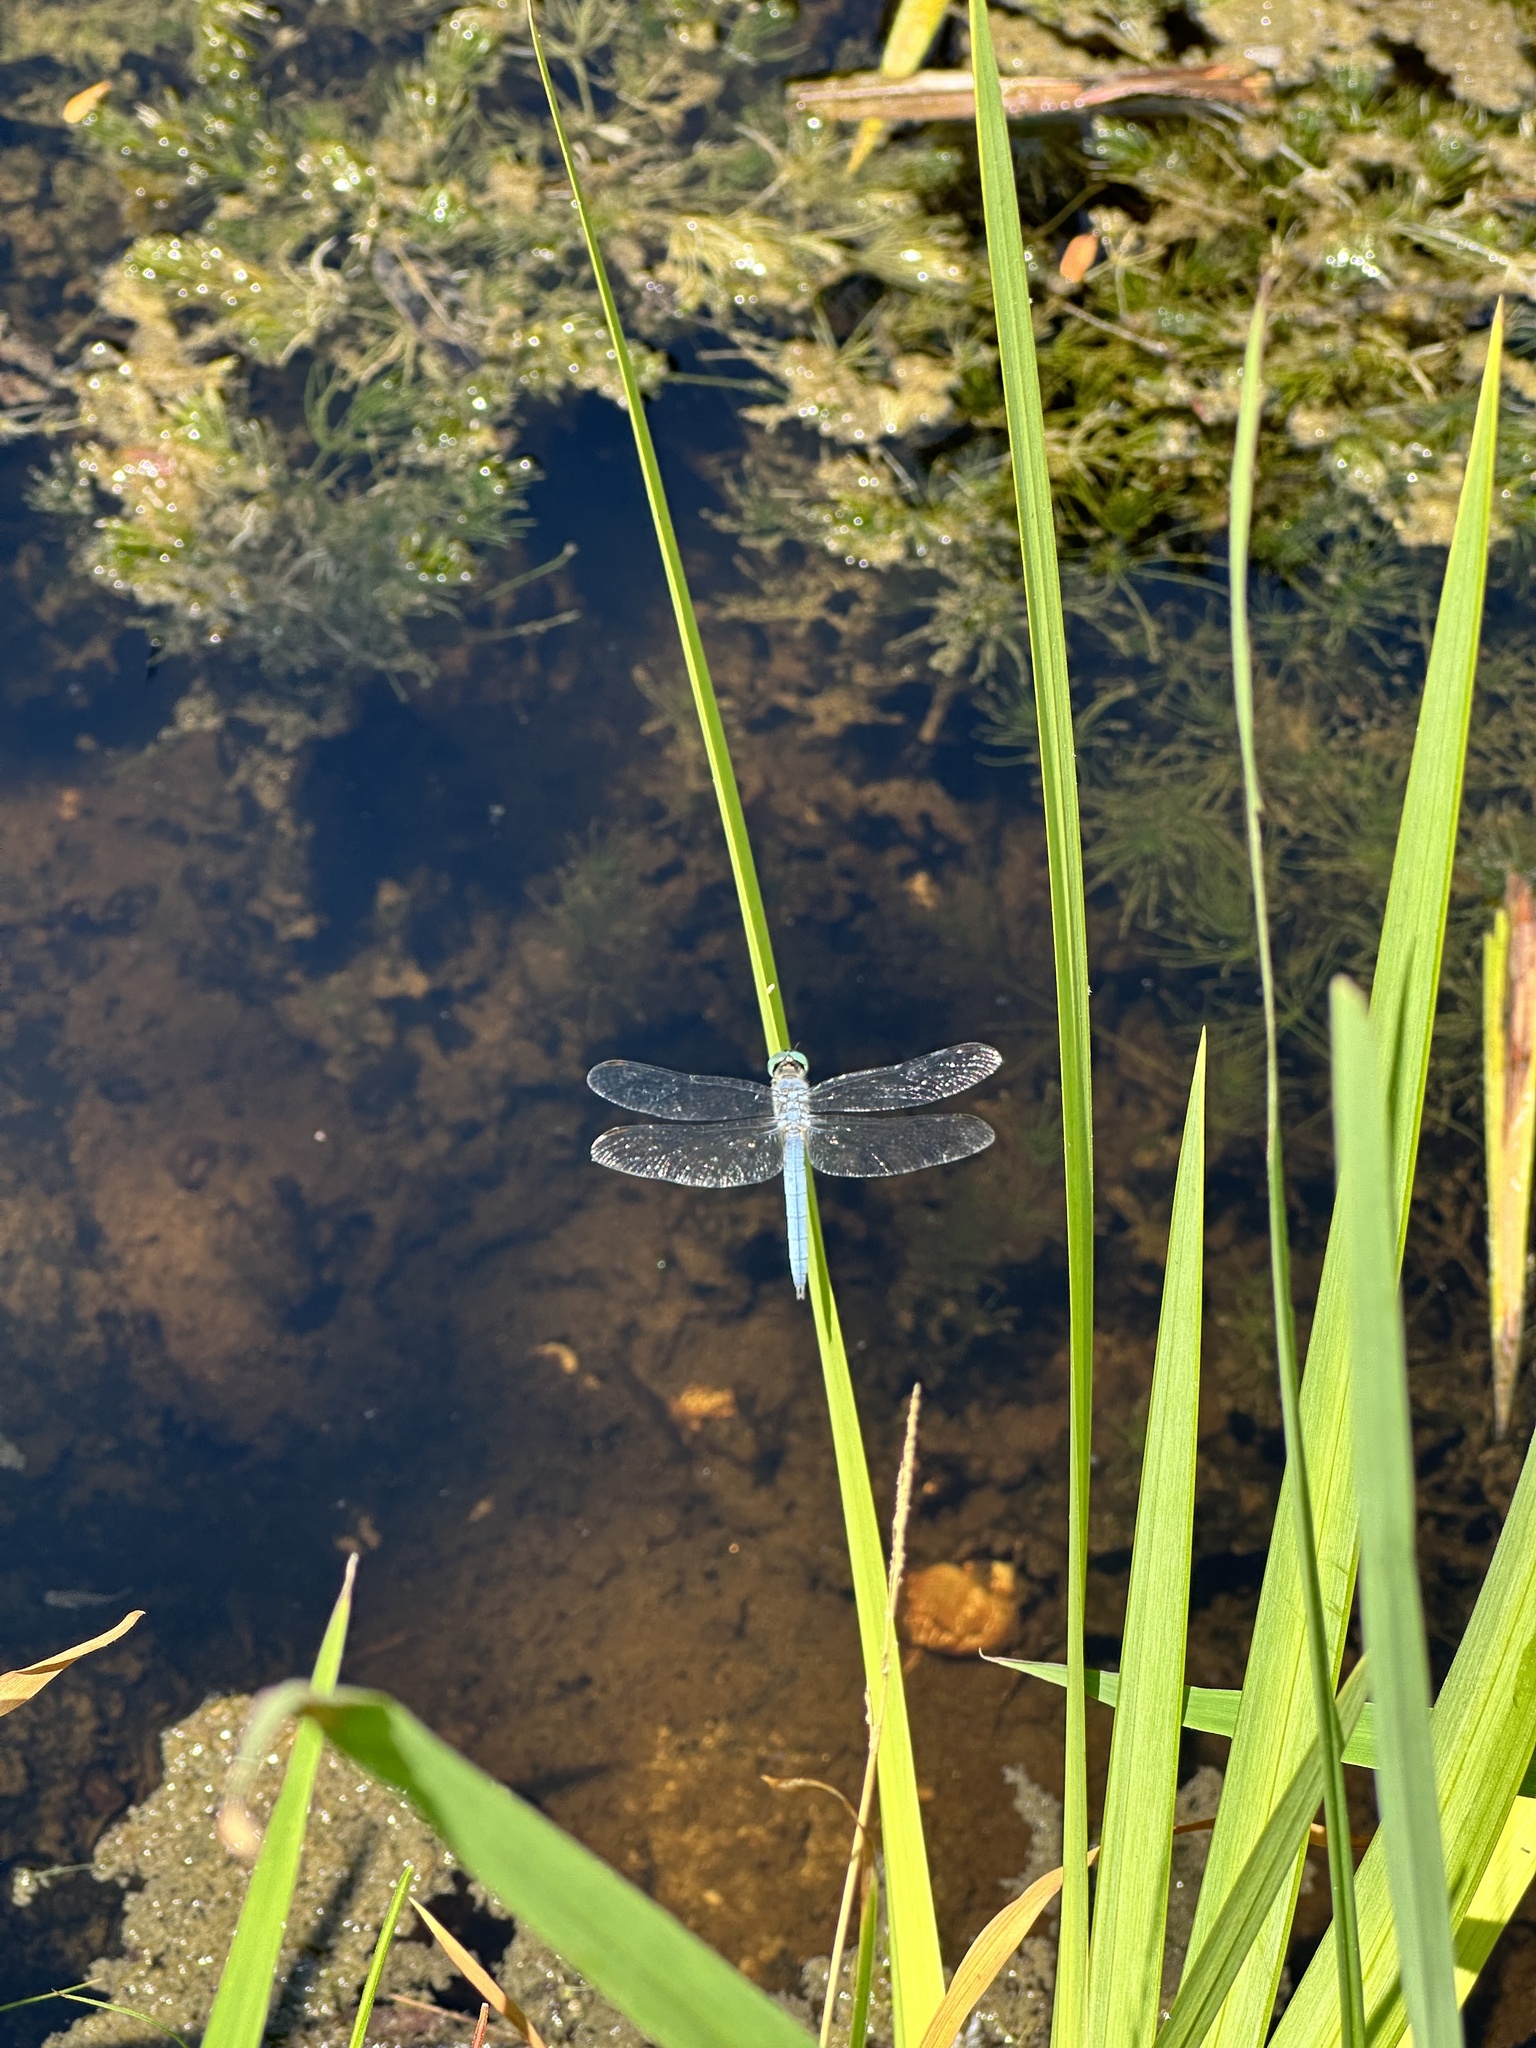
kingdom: Animalia
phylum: Arthropoda
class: Insecta
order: Odonata
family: Libellulidae
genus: Pachydiplax
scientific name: Pachydiplax longipennis
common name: Blue dasher
